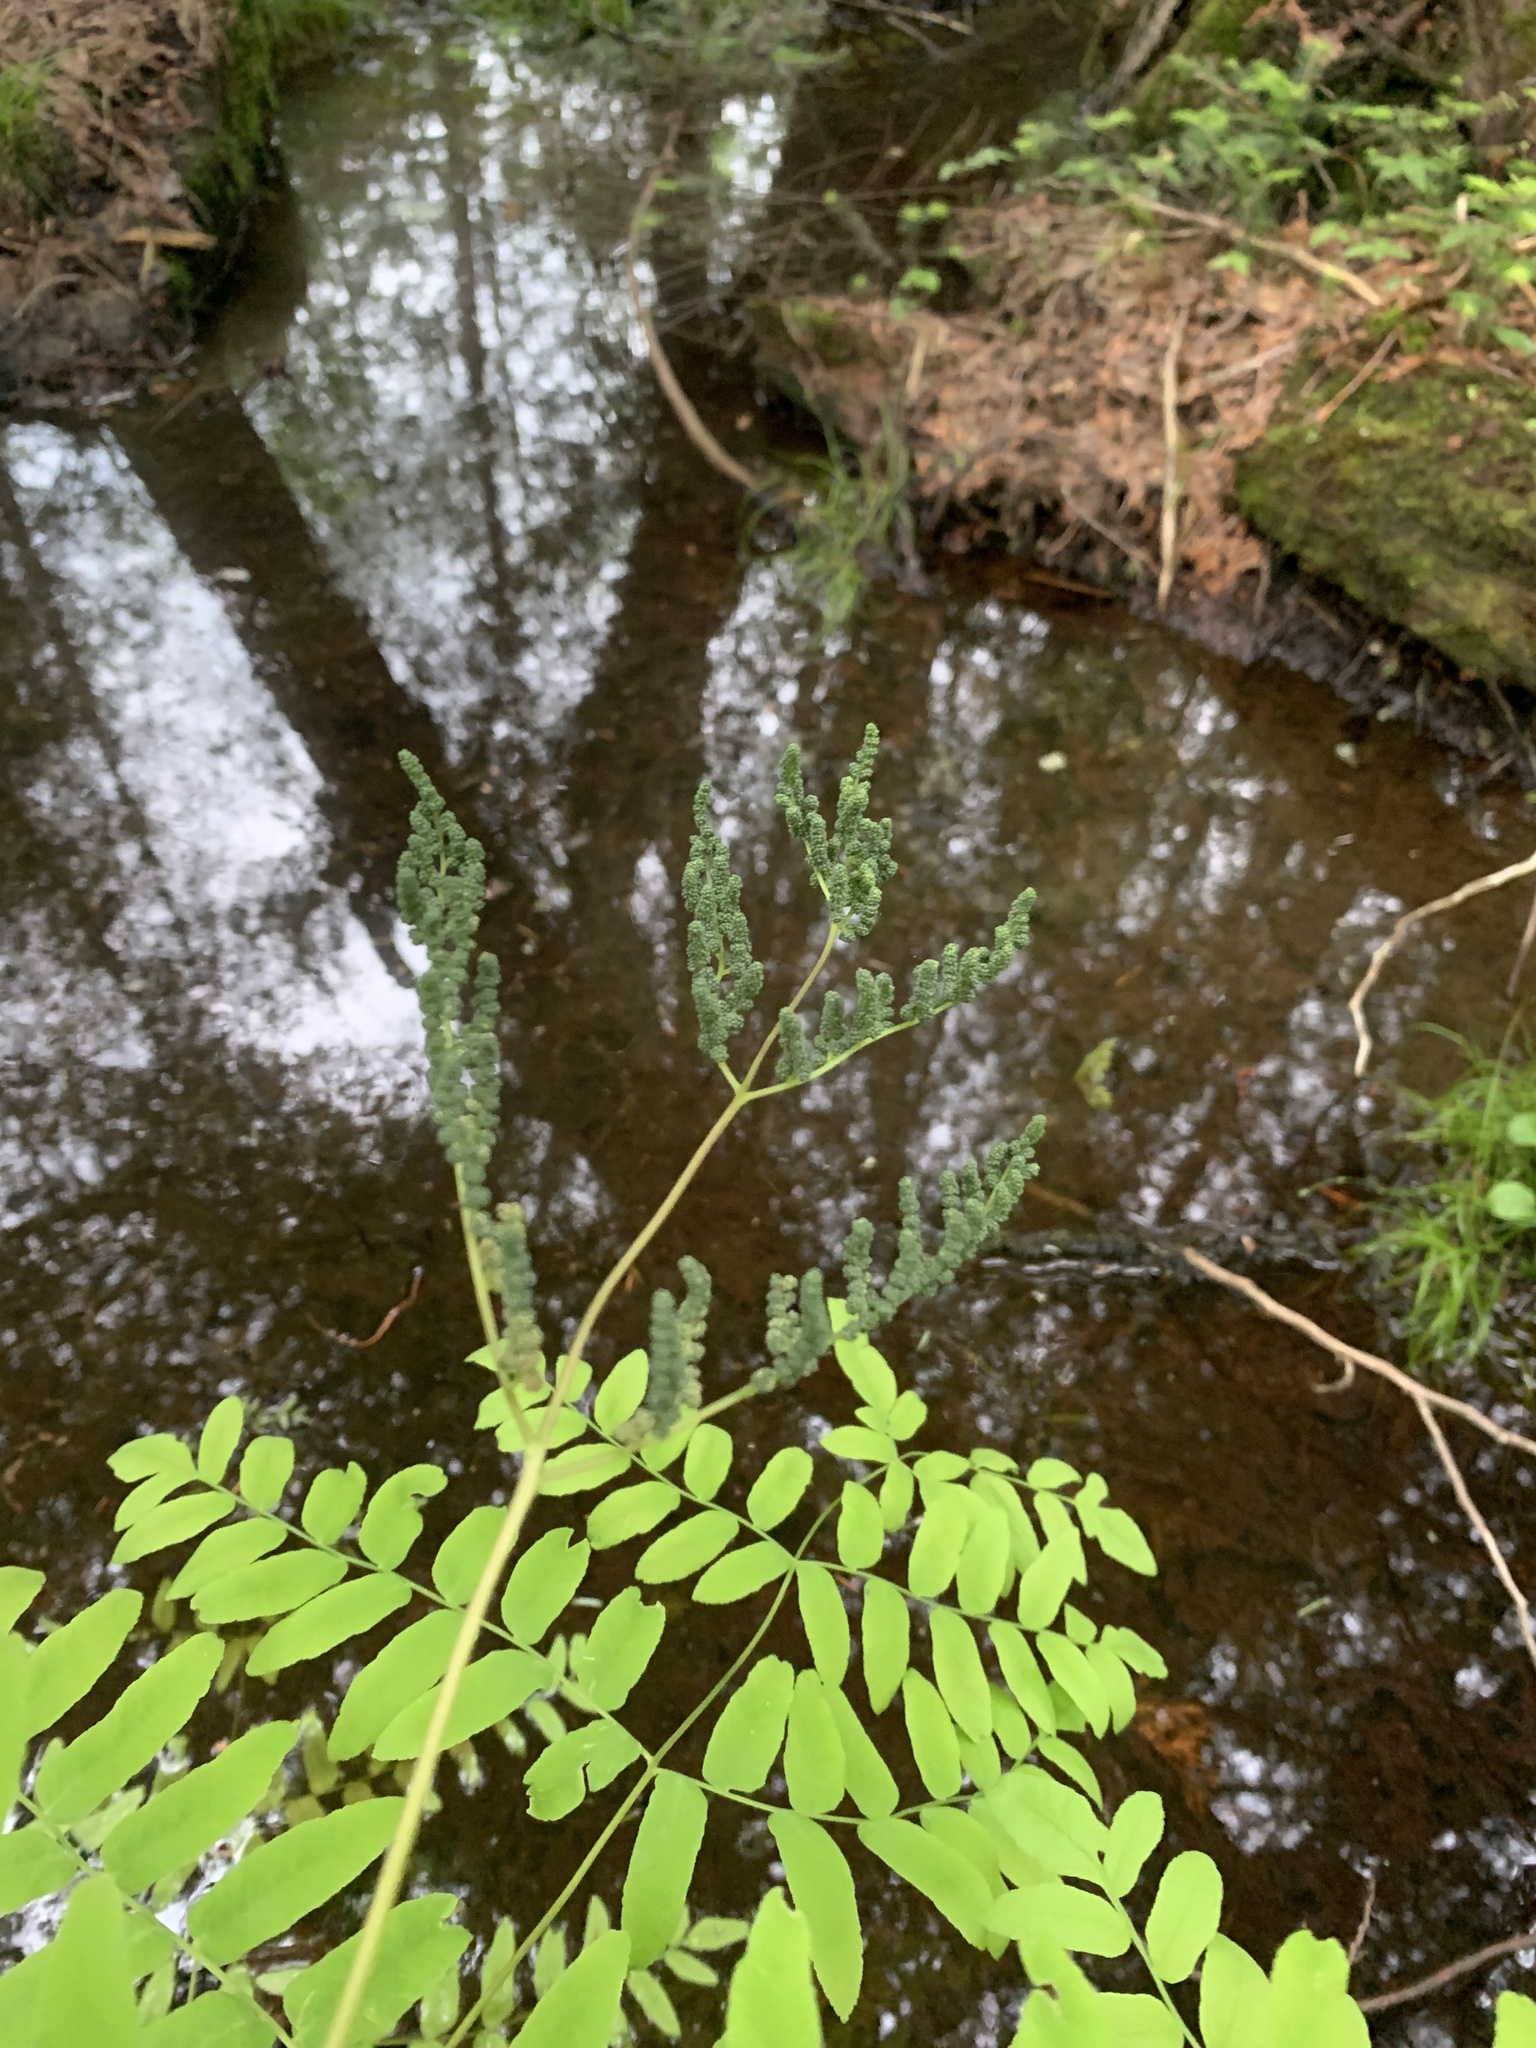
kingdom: Plantae
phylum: Tracheophyta
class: Polypodiopsida
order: Osmundales
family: Osmundaceae
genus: Osmunda
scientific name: Osmunda spectabilis
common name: American royal fern
